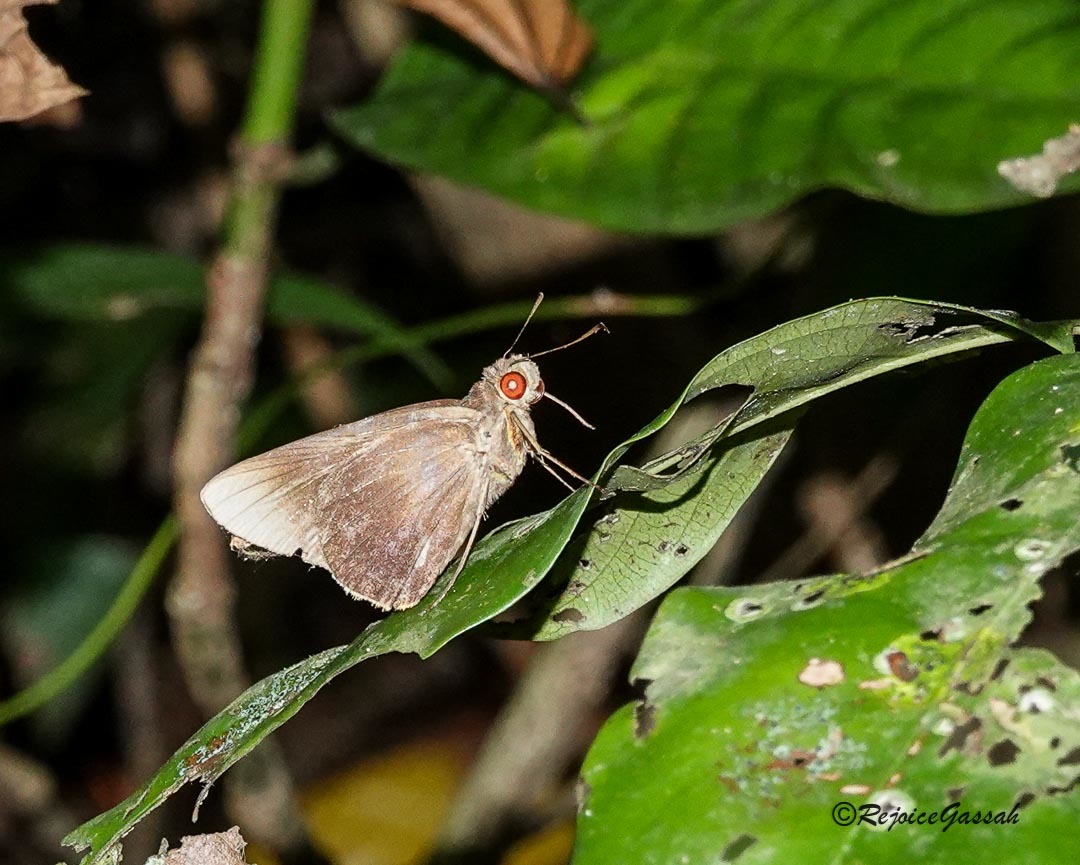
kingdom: Animalia
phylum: Arthropoda
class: Insecta
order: Lepidoptera
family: Hesperiidae
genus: Matapa
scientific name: Matapa aria
